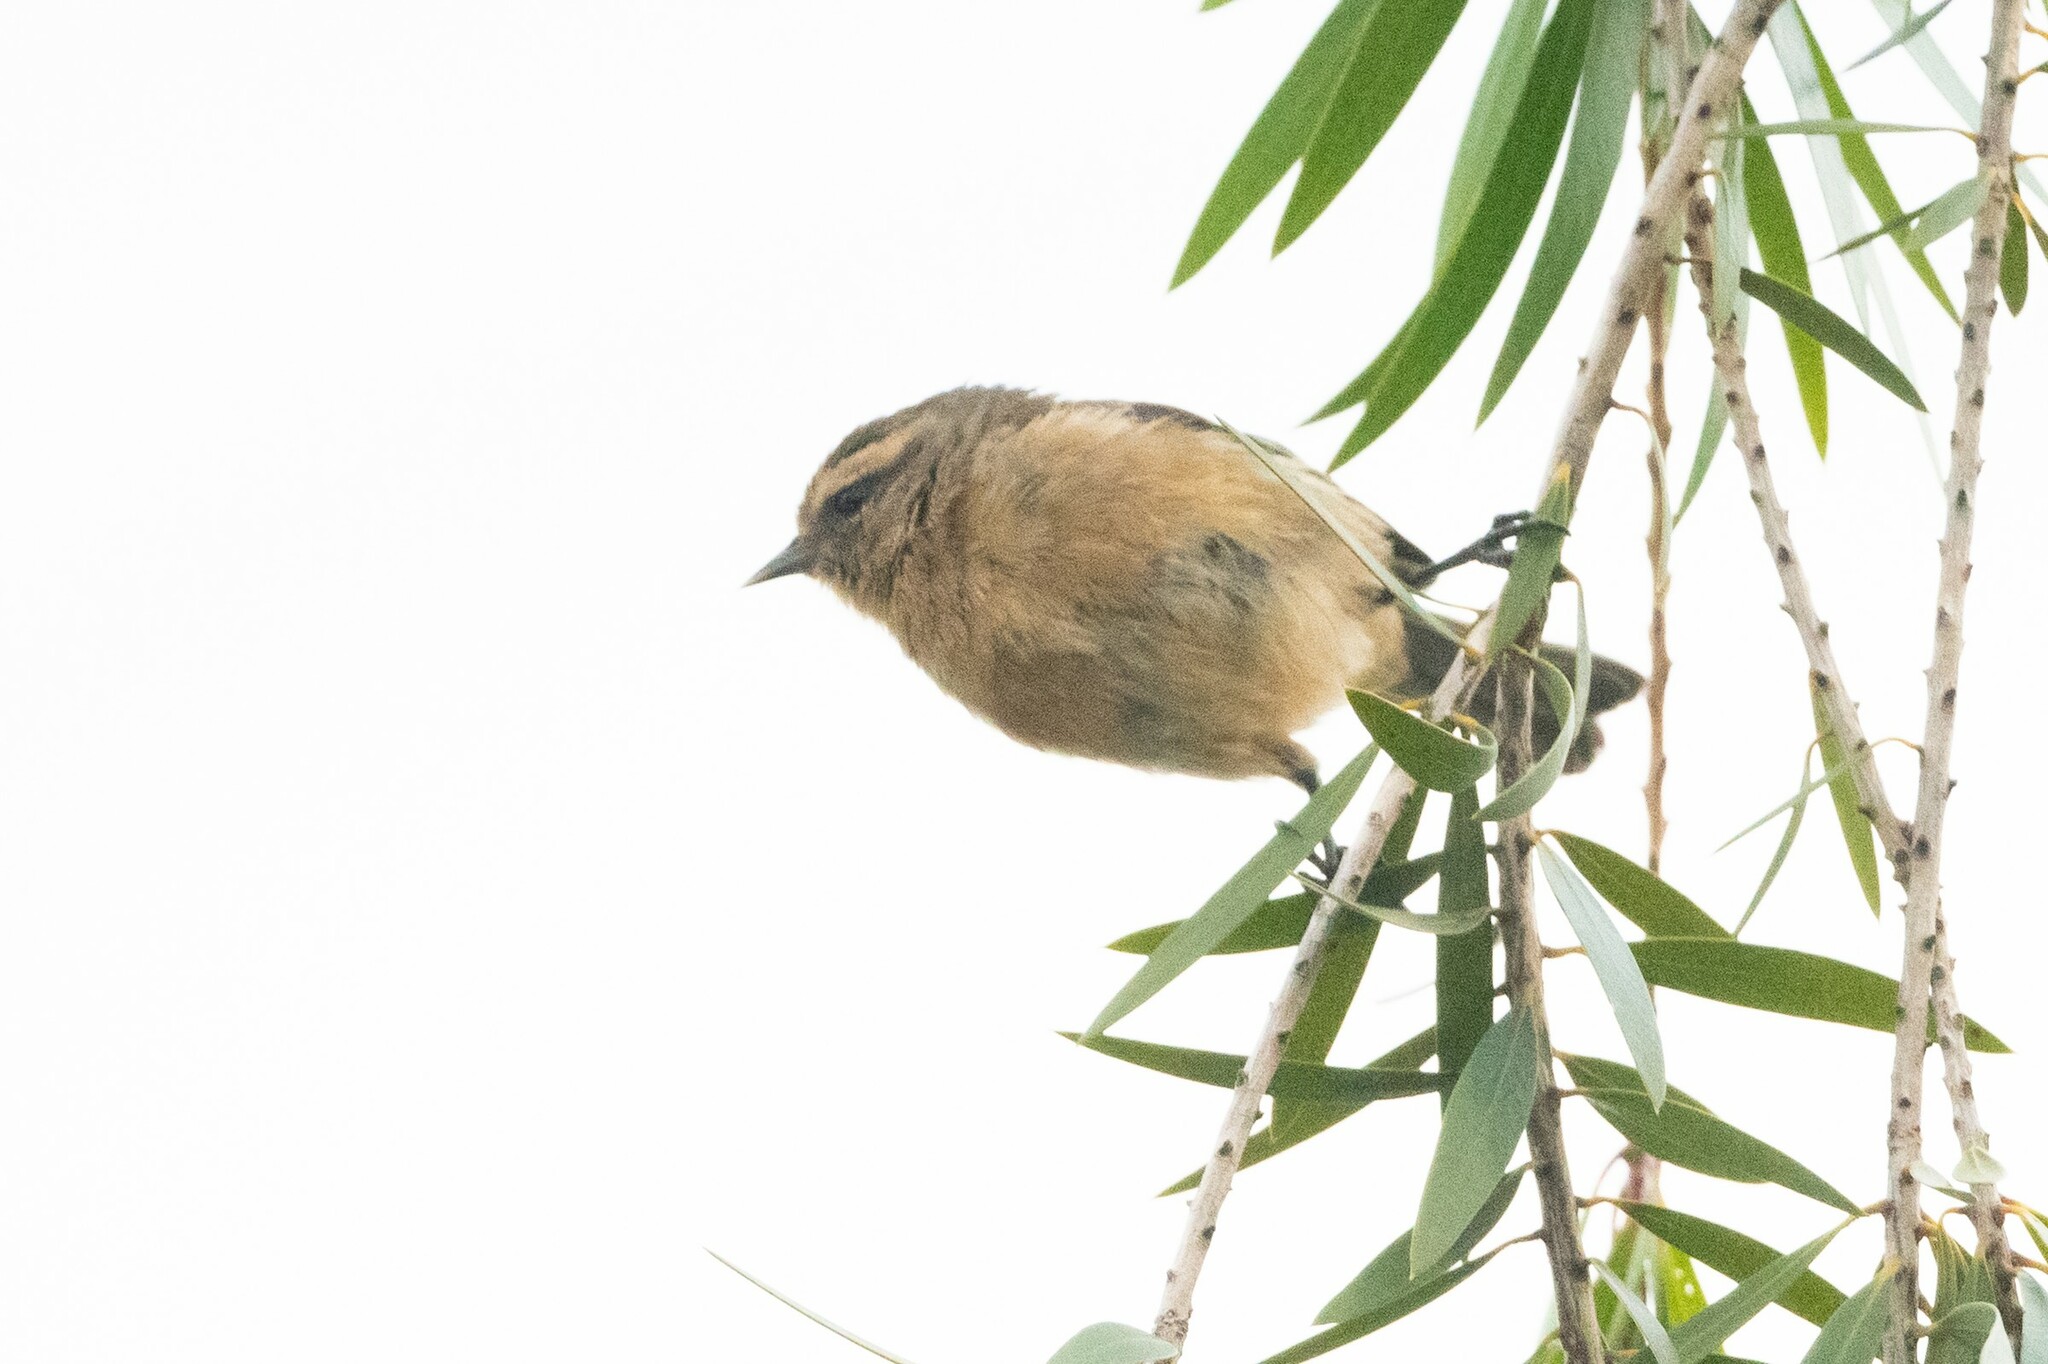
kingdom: Animalia
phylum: Chordata
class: Aves
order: Passeriformes
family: Thraupidae
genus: Conirostrum
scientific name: Conirostrum cinereum
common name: Cinereous conebill
